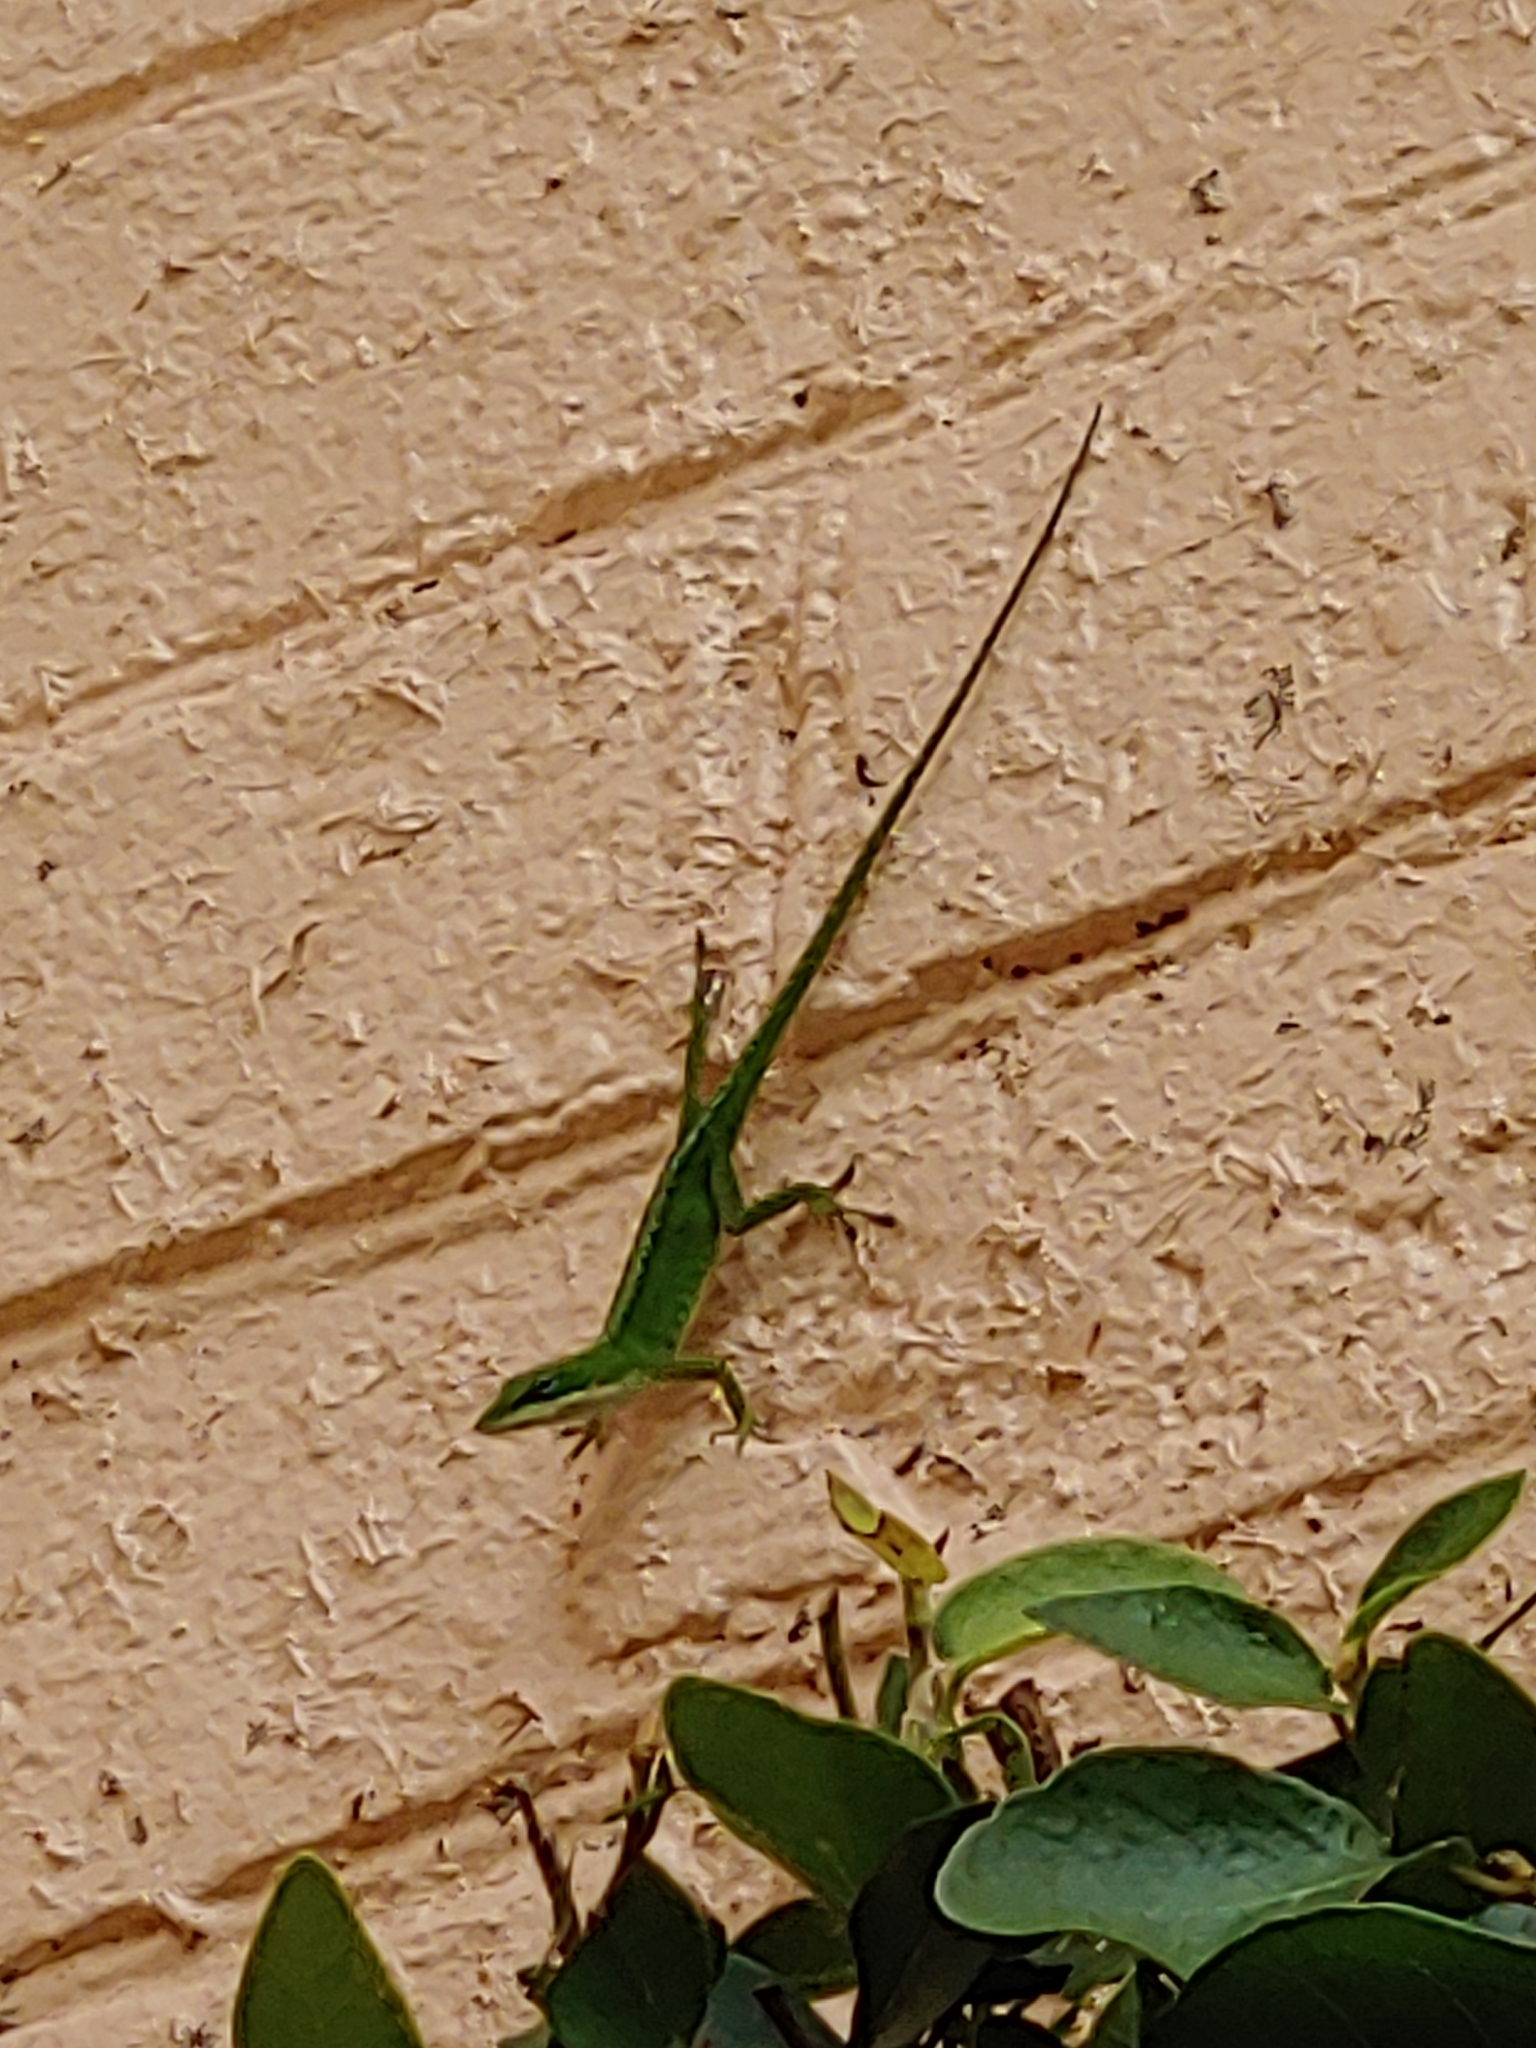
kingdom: Animalia
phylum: Chordata
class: Squamata
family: Dactyloidae
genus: Anolis
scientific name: Anolis carolinensis
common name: Green anole
